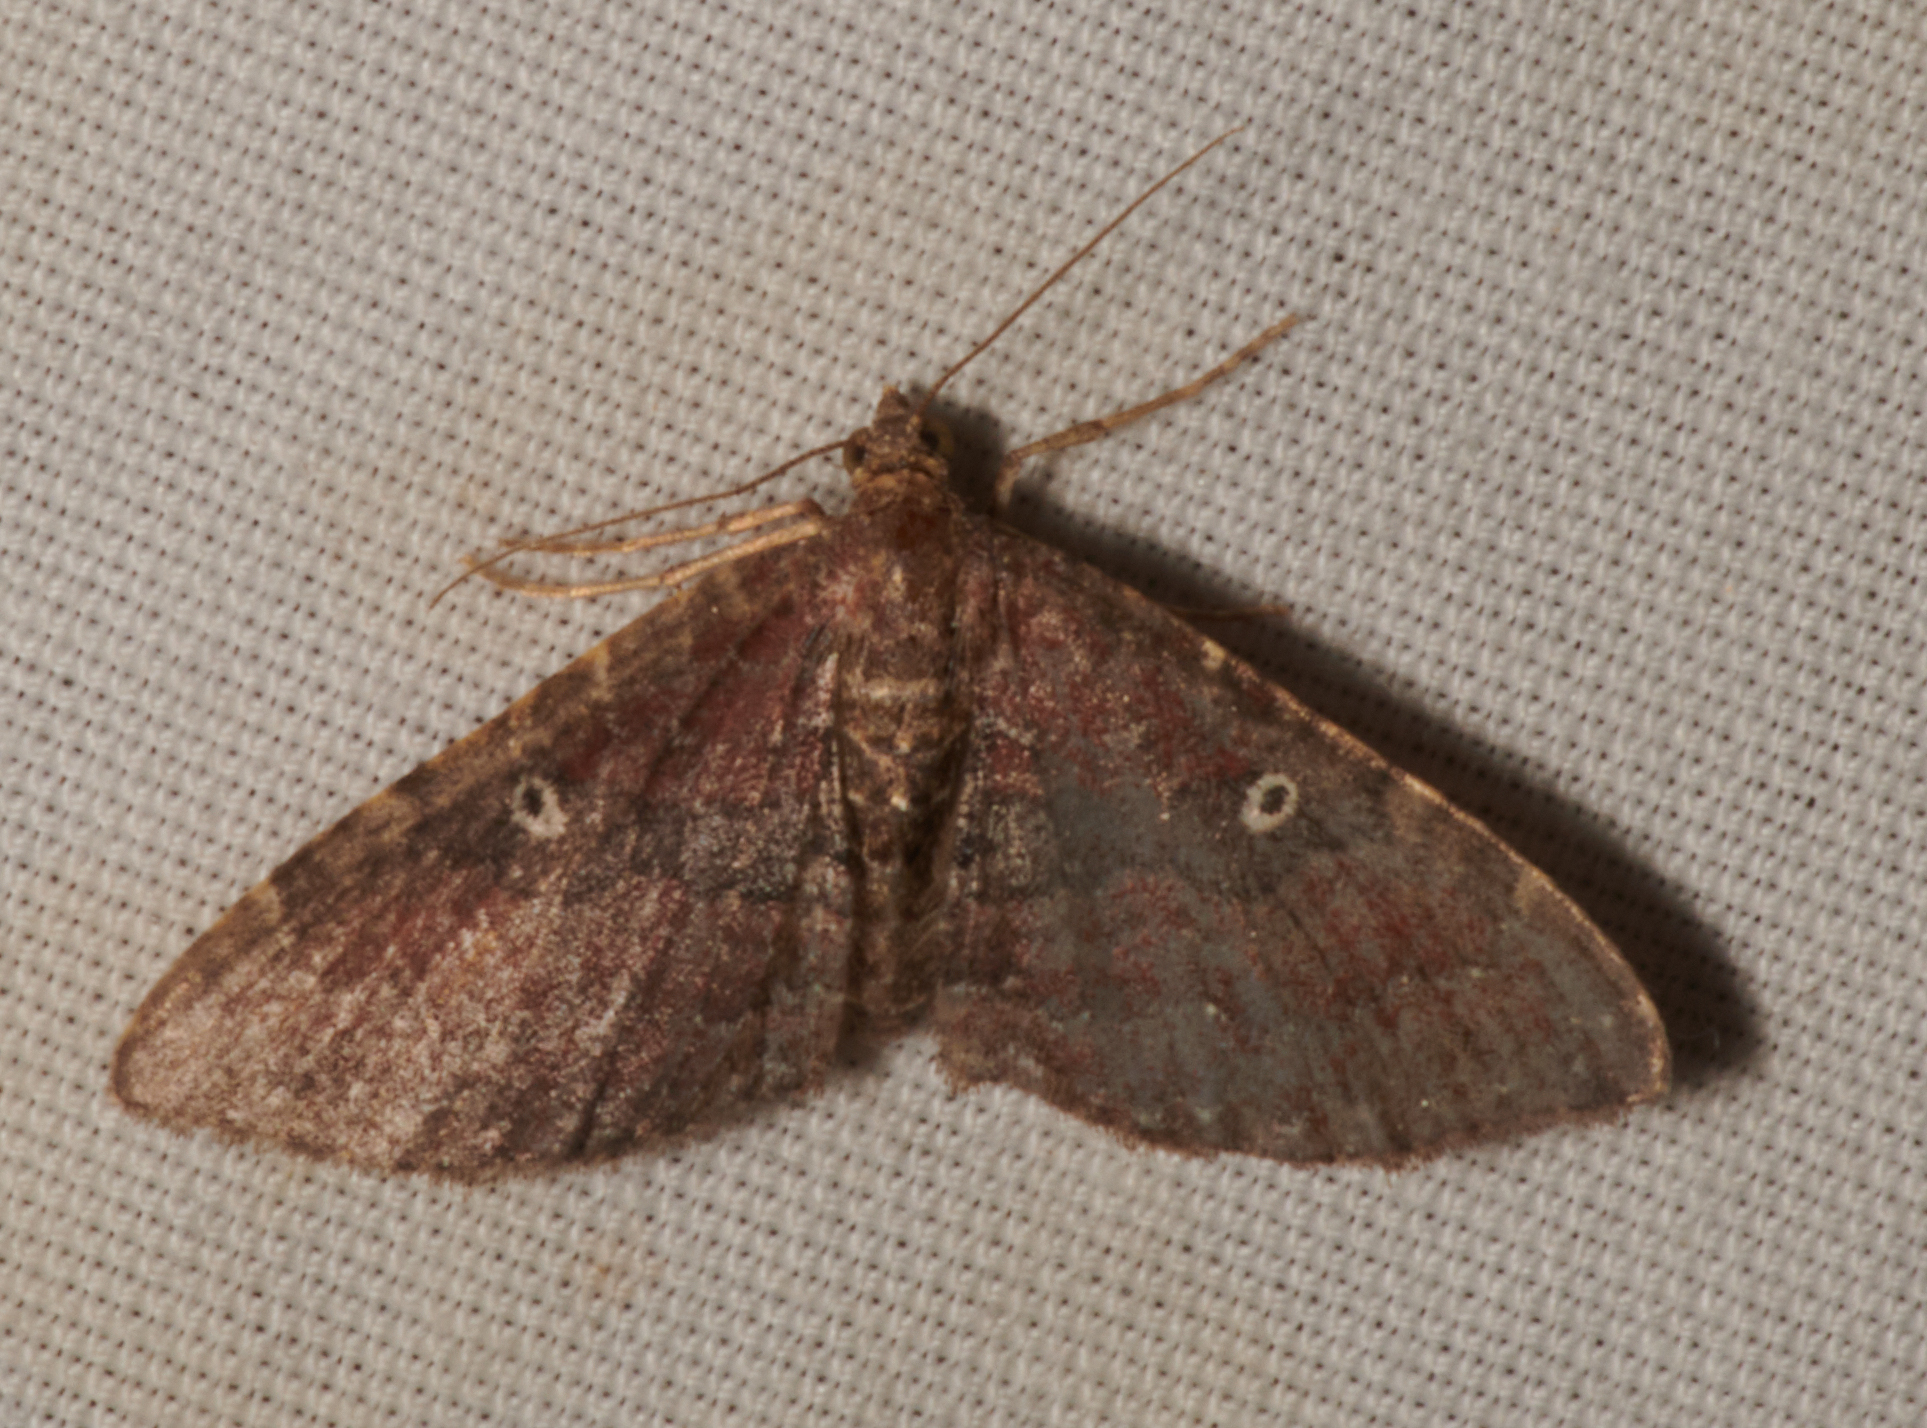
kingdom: Animalia
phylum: Arthropoda
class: Insecta
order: Lepidoptera
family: Geometridae
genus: Orthonama
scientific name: Orthonama obstipata
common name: The gem
